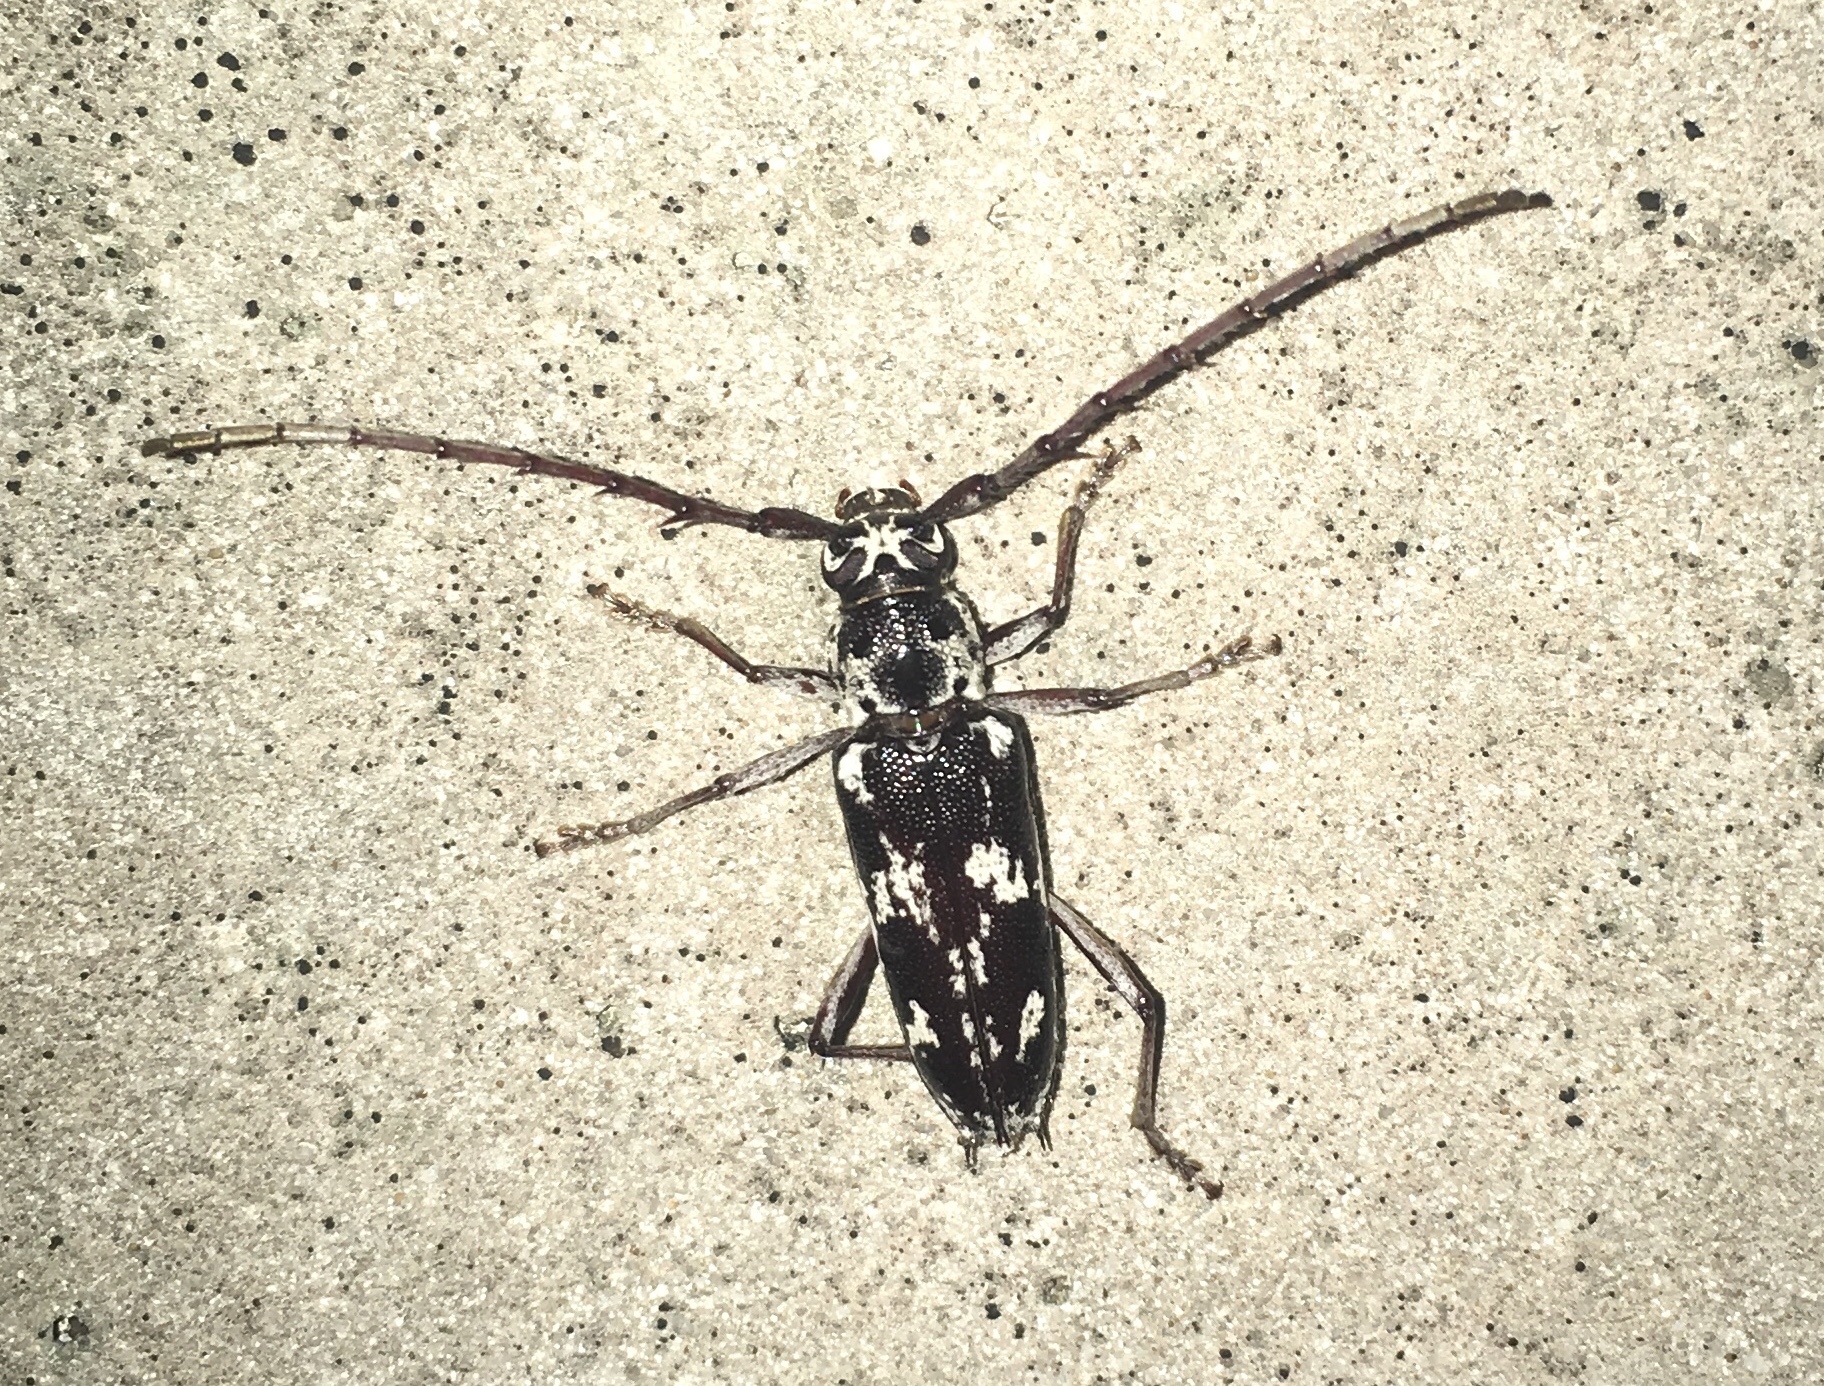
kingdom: Animalia
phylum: Arthropoda
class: Insecta
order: Coleoptera
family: Cerambycidae
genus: Elaphidion
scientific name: Elaphidion irroratum
